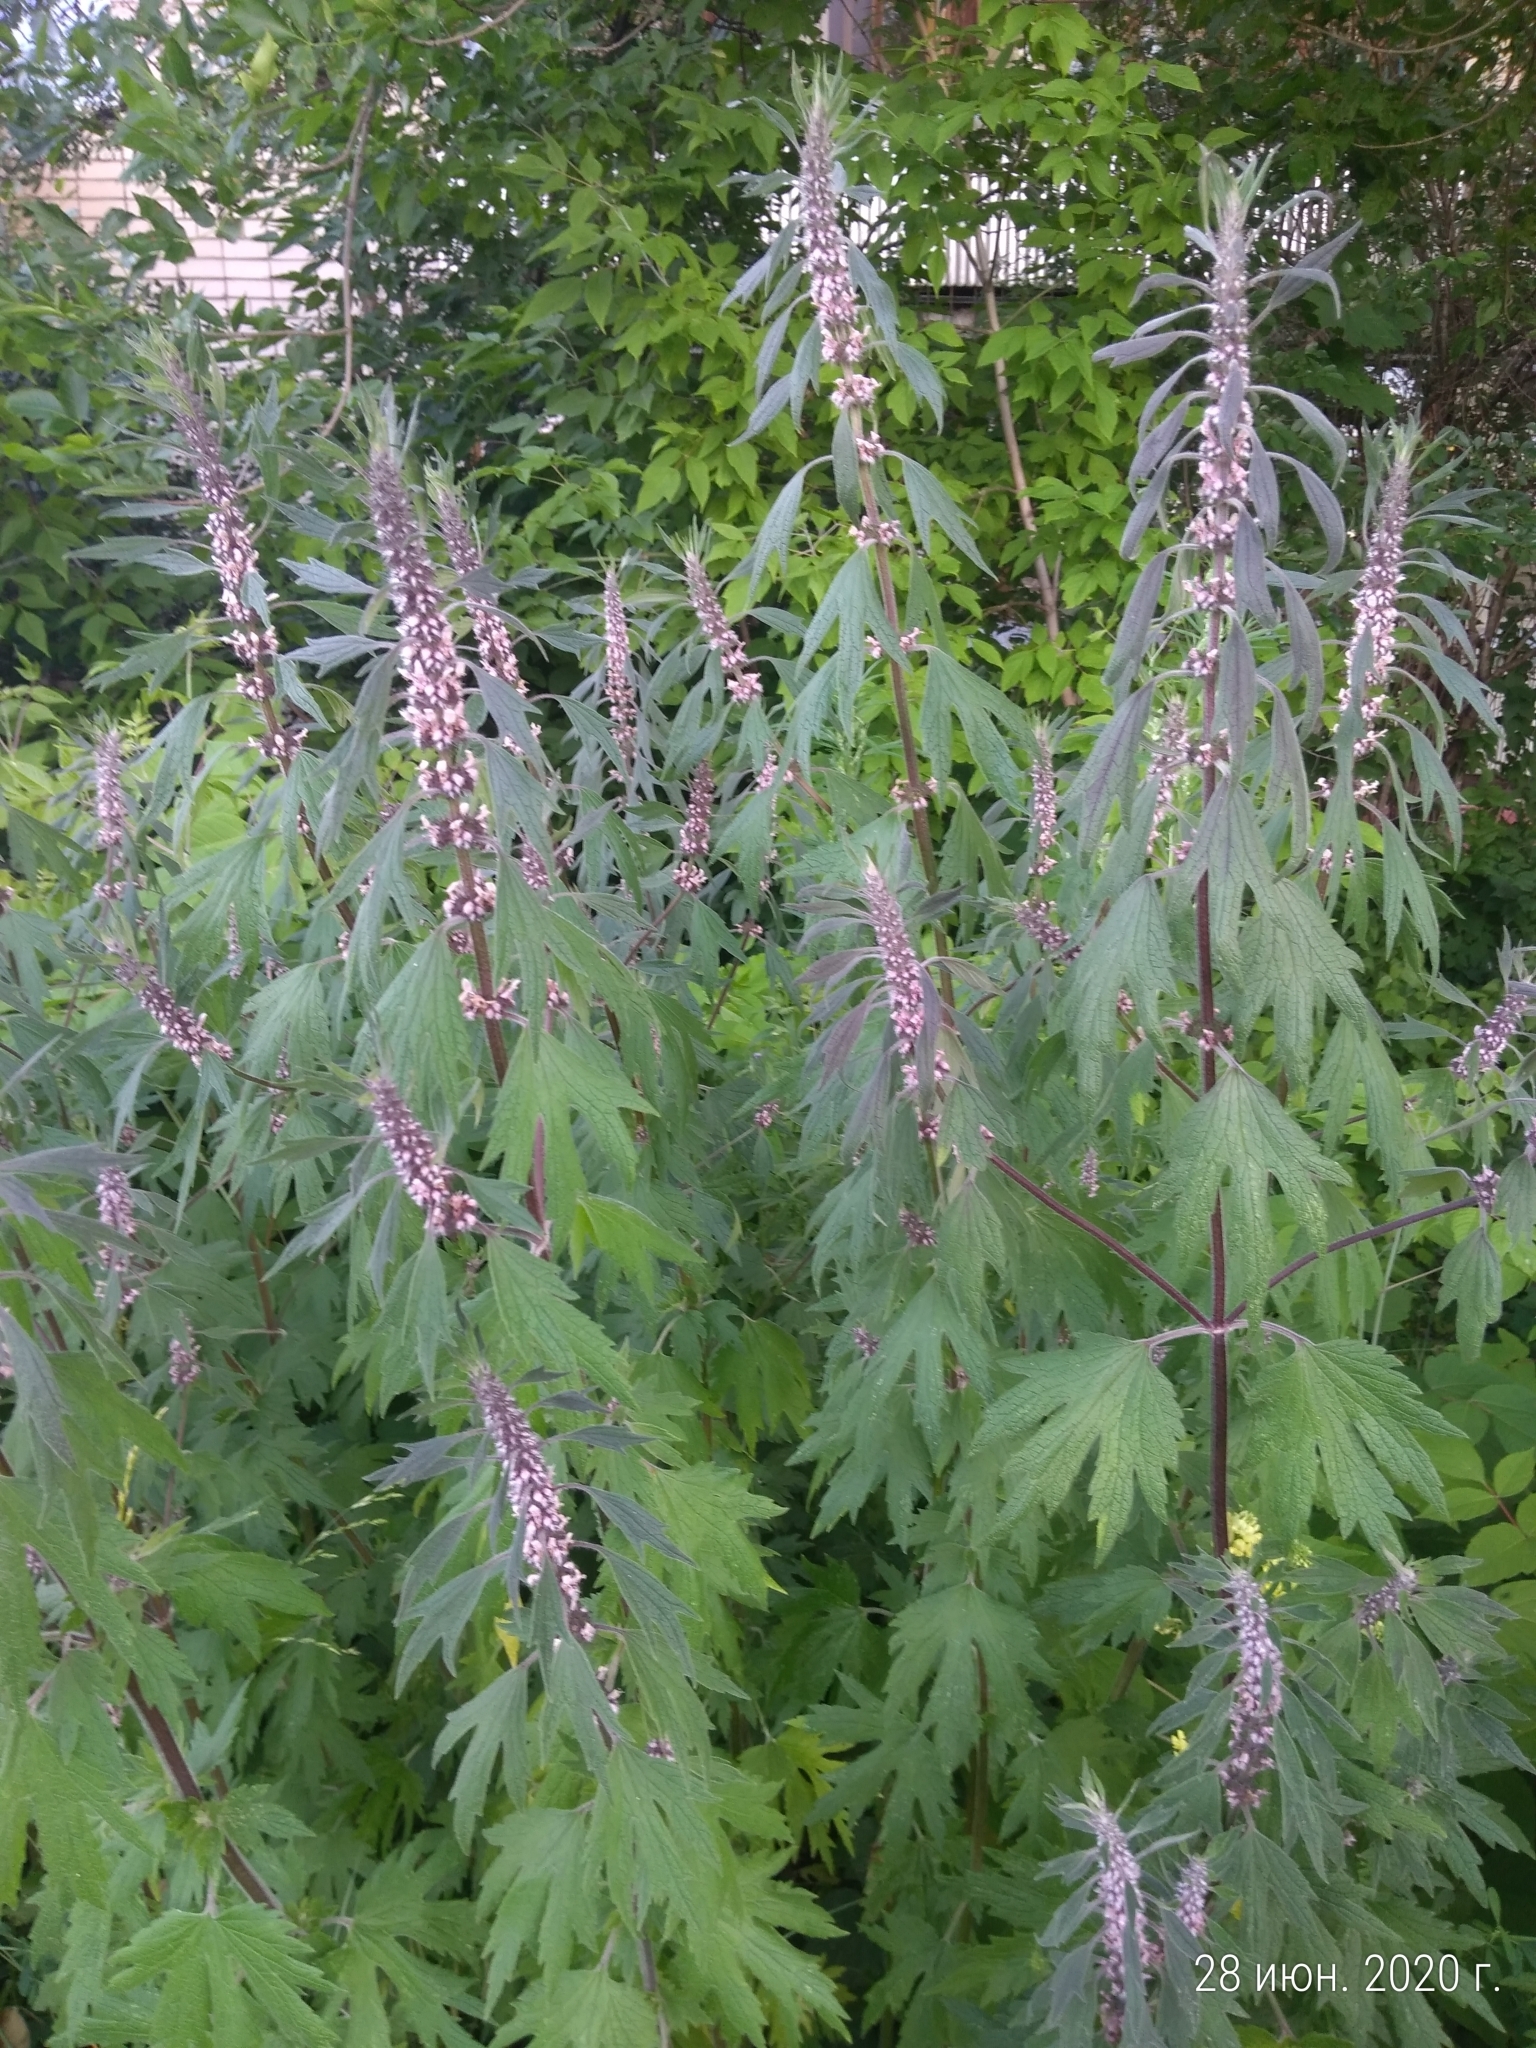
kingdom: Plantae
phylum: Tracheophyta
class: Magnoliopsida
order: Lamiales
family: Lamiaceae
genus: Leonurus
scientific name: Leonurus quinquelobatus
